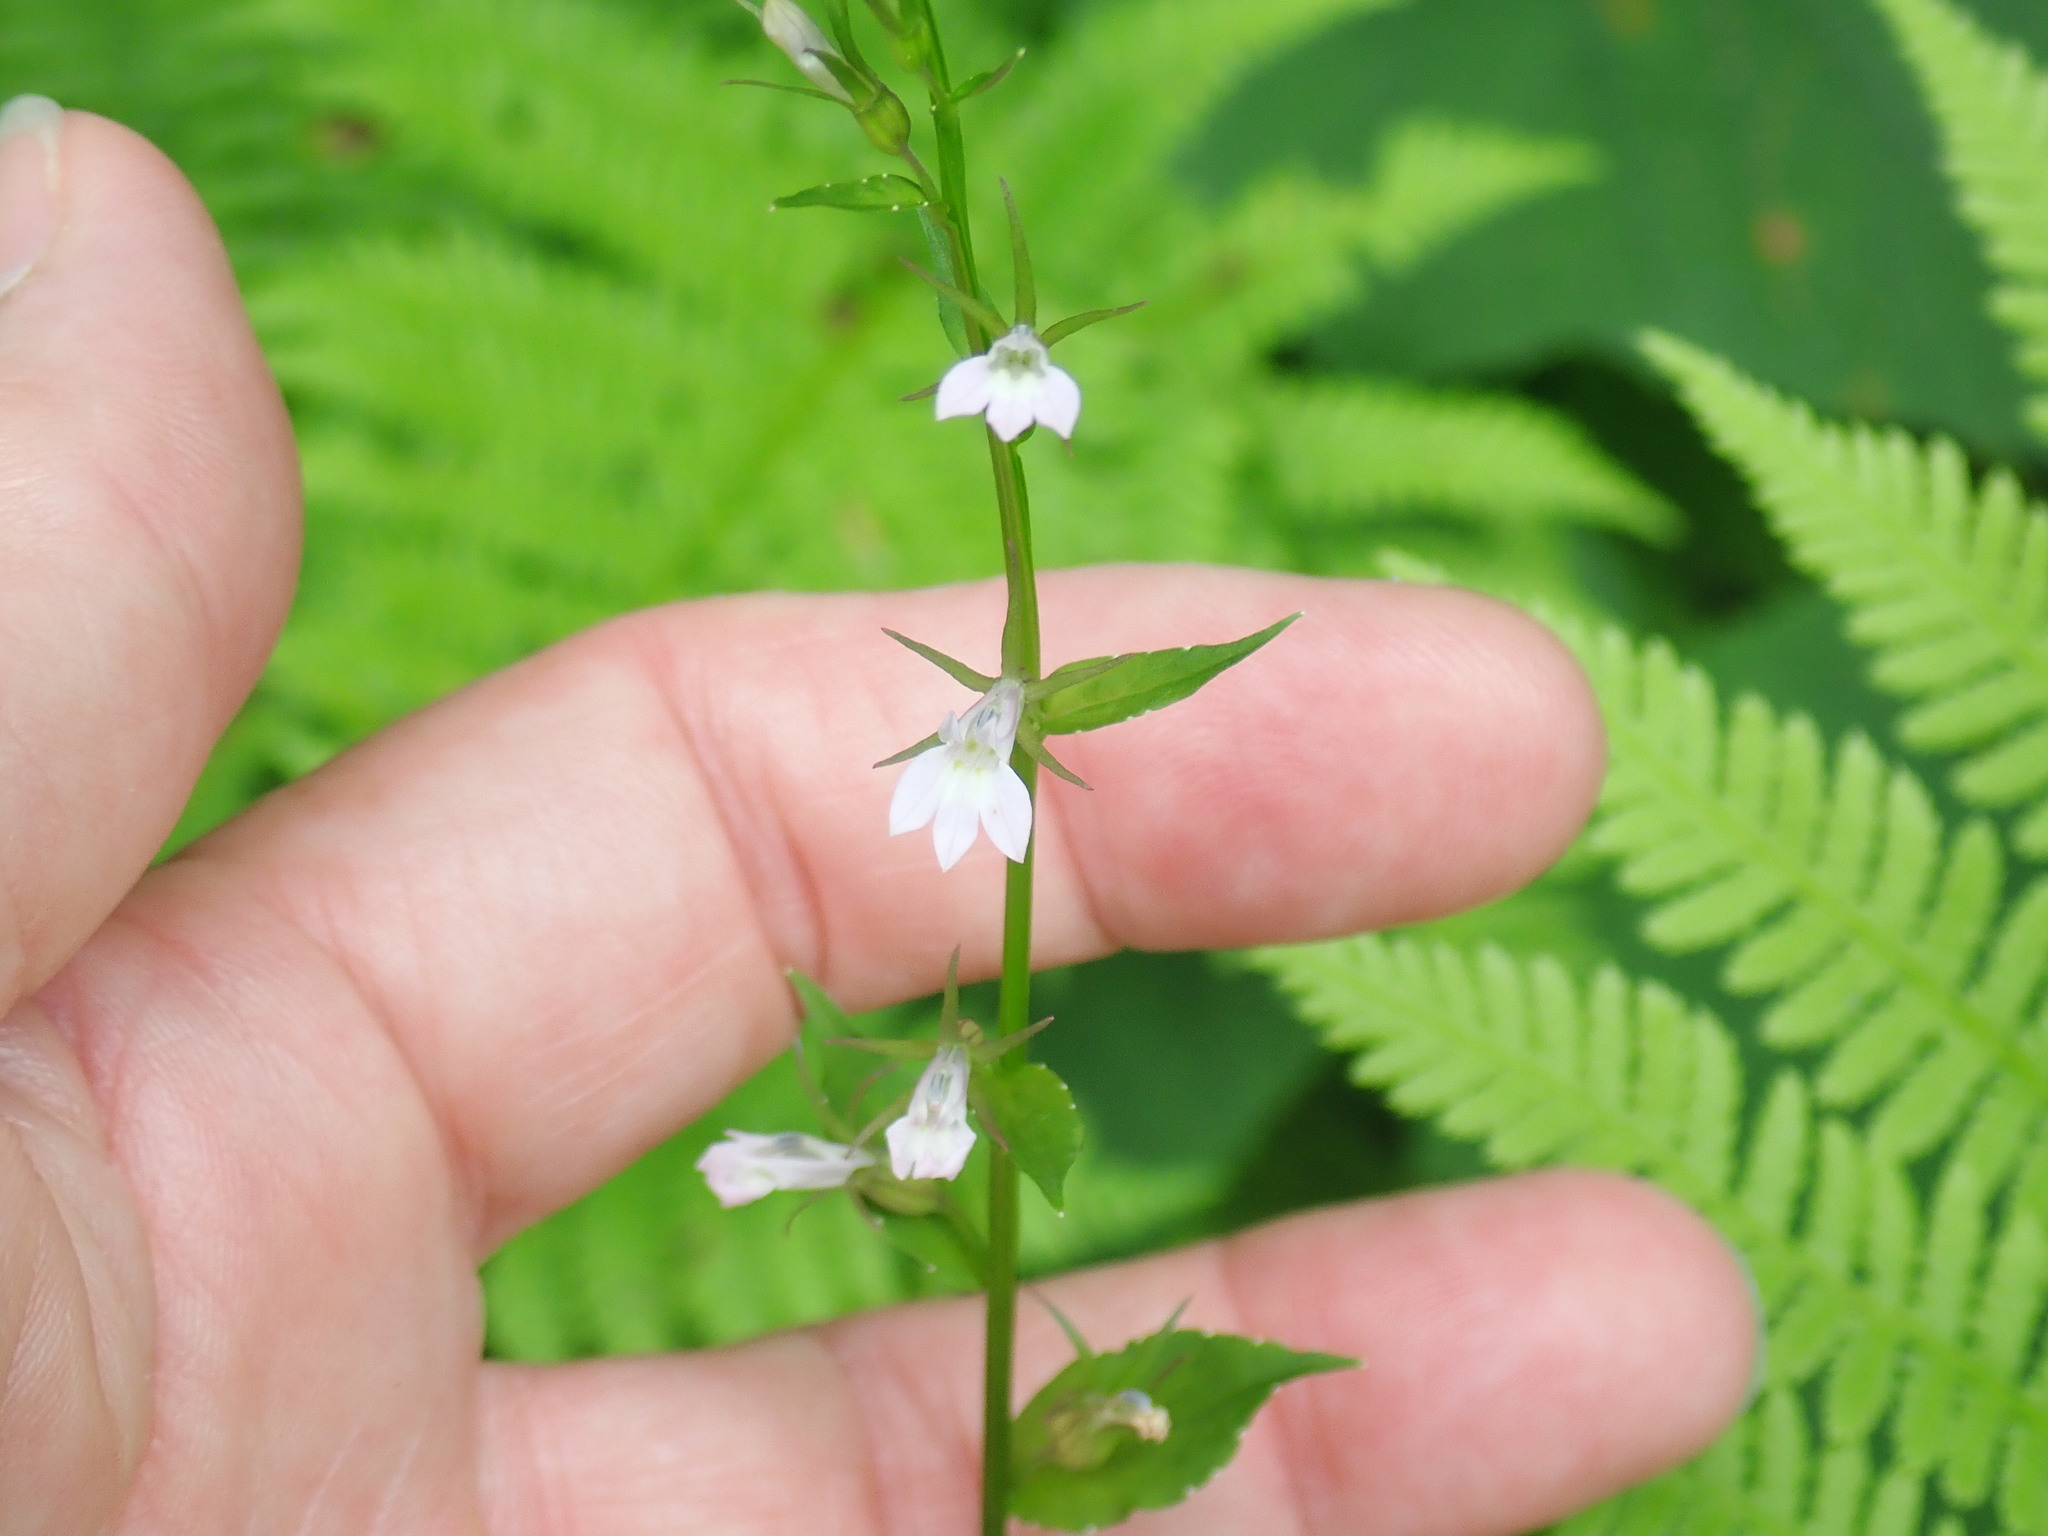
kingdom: Plantae
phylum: Tracheophyta
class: Magnoliopsida
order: Asterales
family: Campanulaceae
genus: Lobelia
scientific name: Lobelia inflata
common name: Indian tobacco
